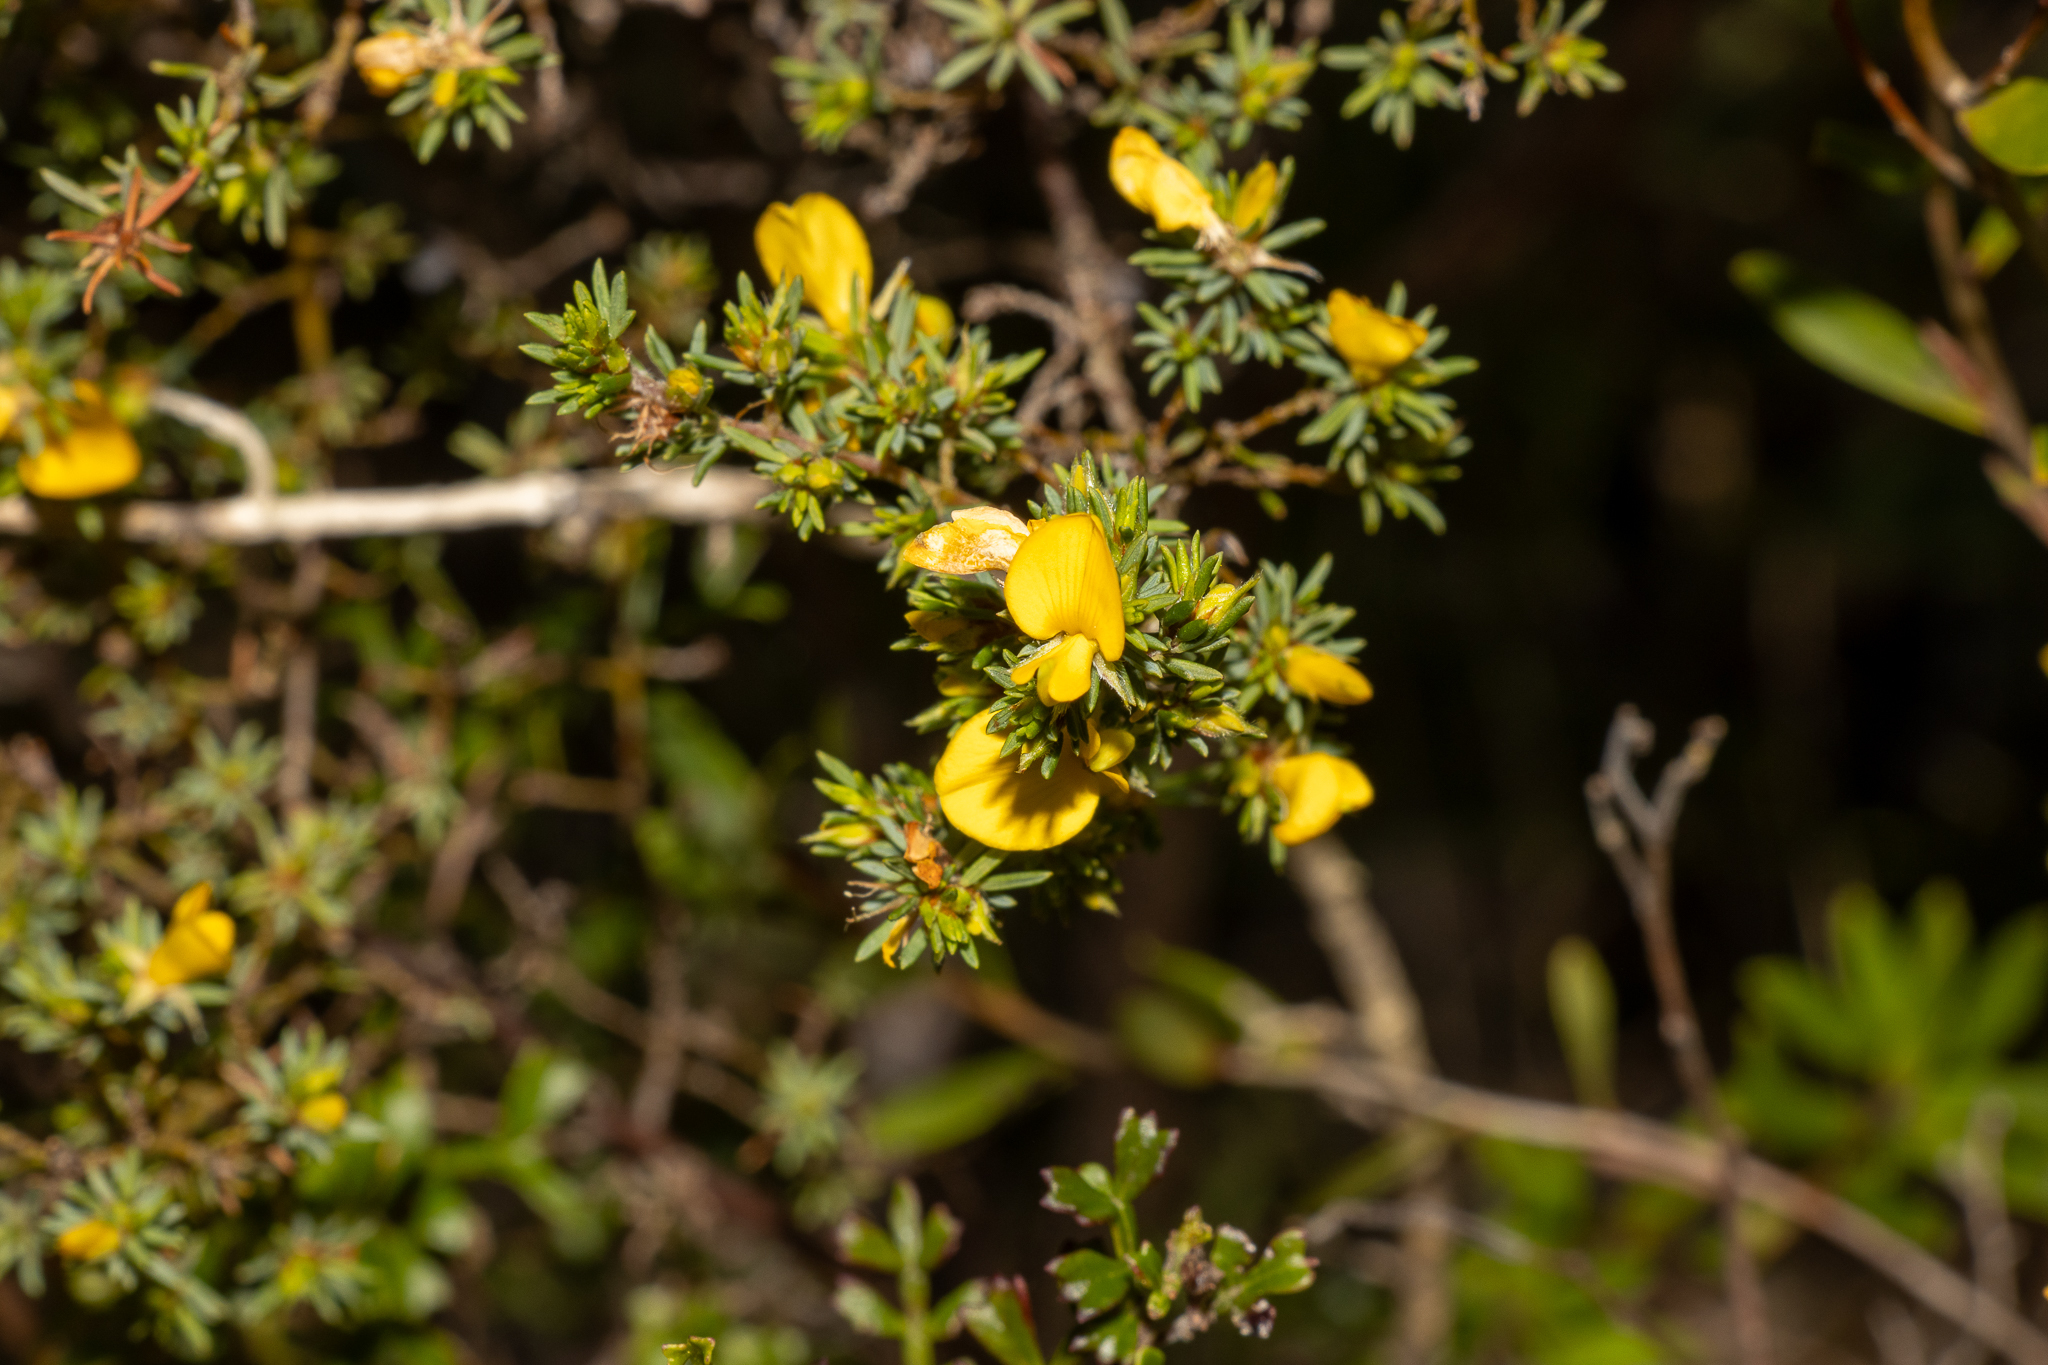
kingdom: Plantae
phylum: Tracheophyta
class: Magnoliopsida
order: Fabales
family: Fabaceae
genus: Pultenaea
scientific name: Pultenaea tenuifolia
